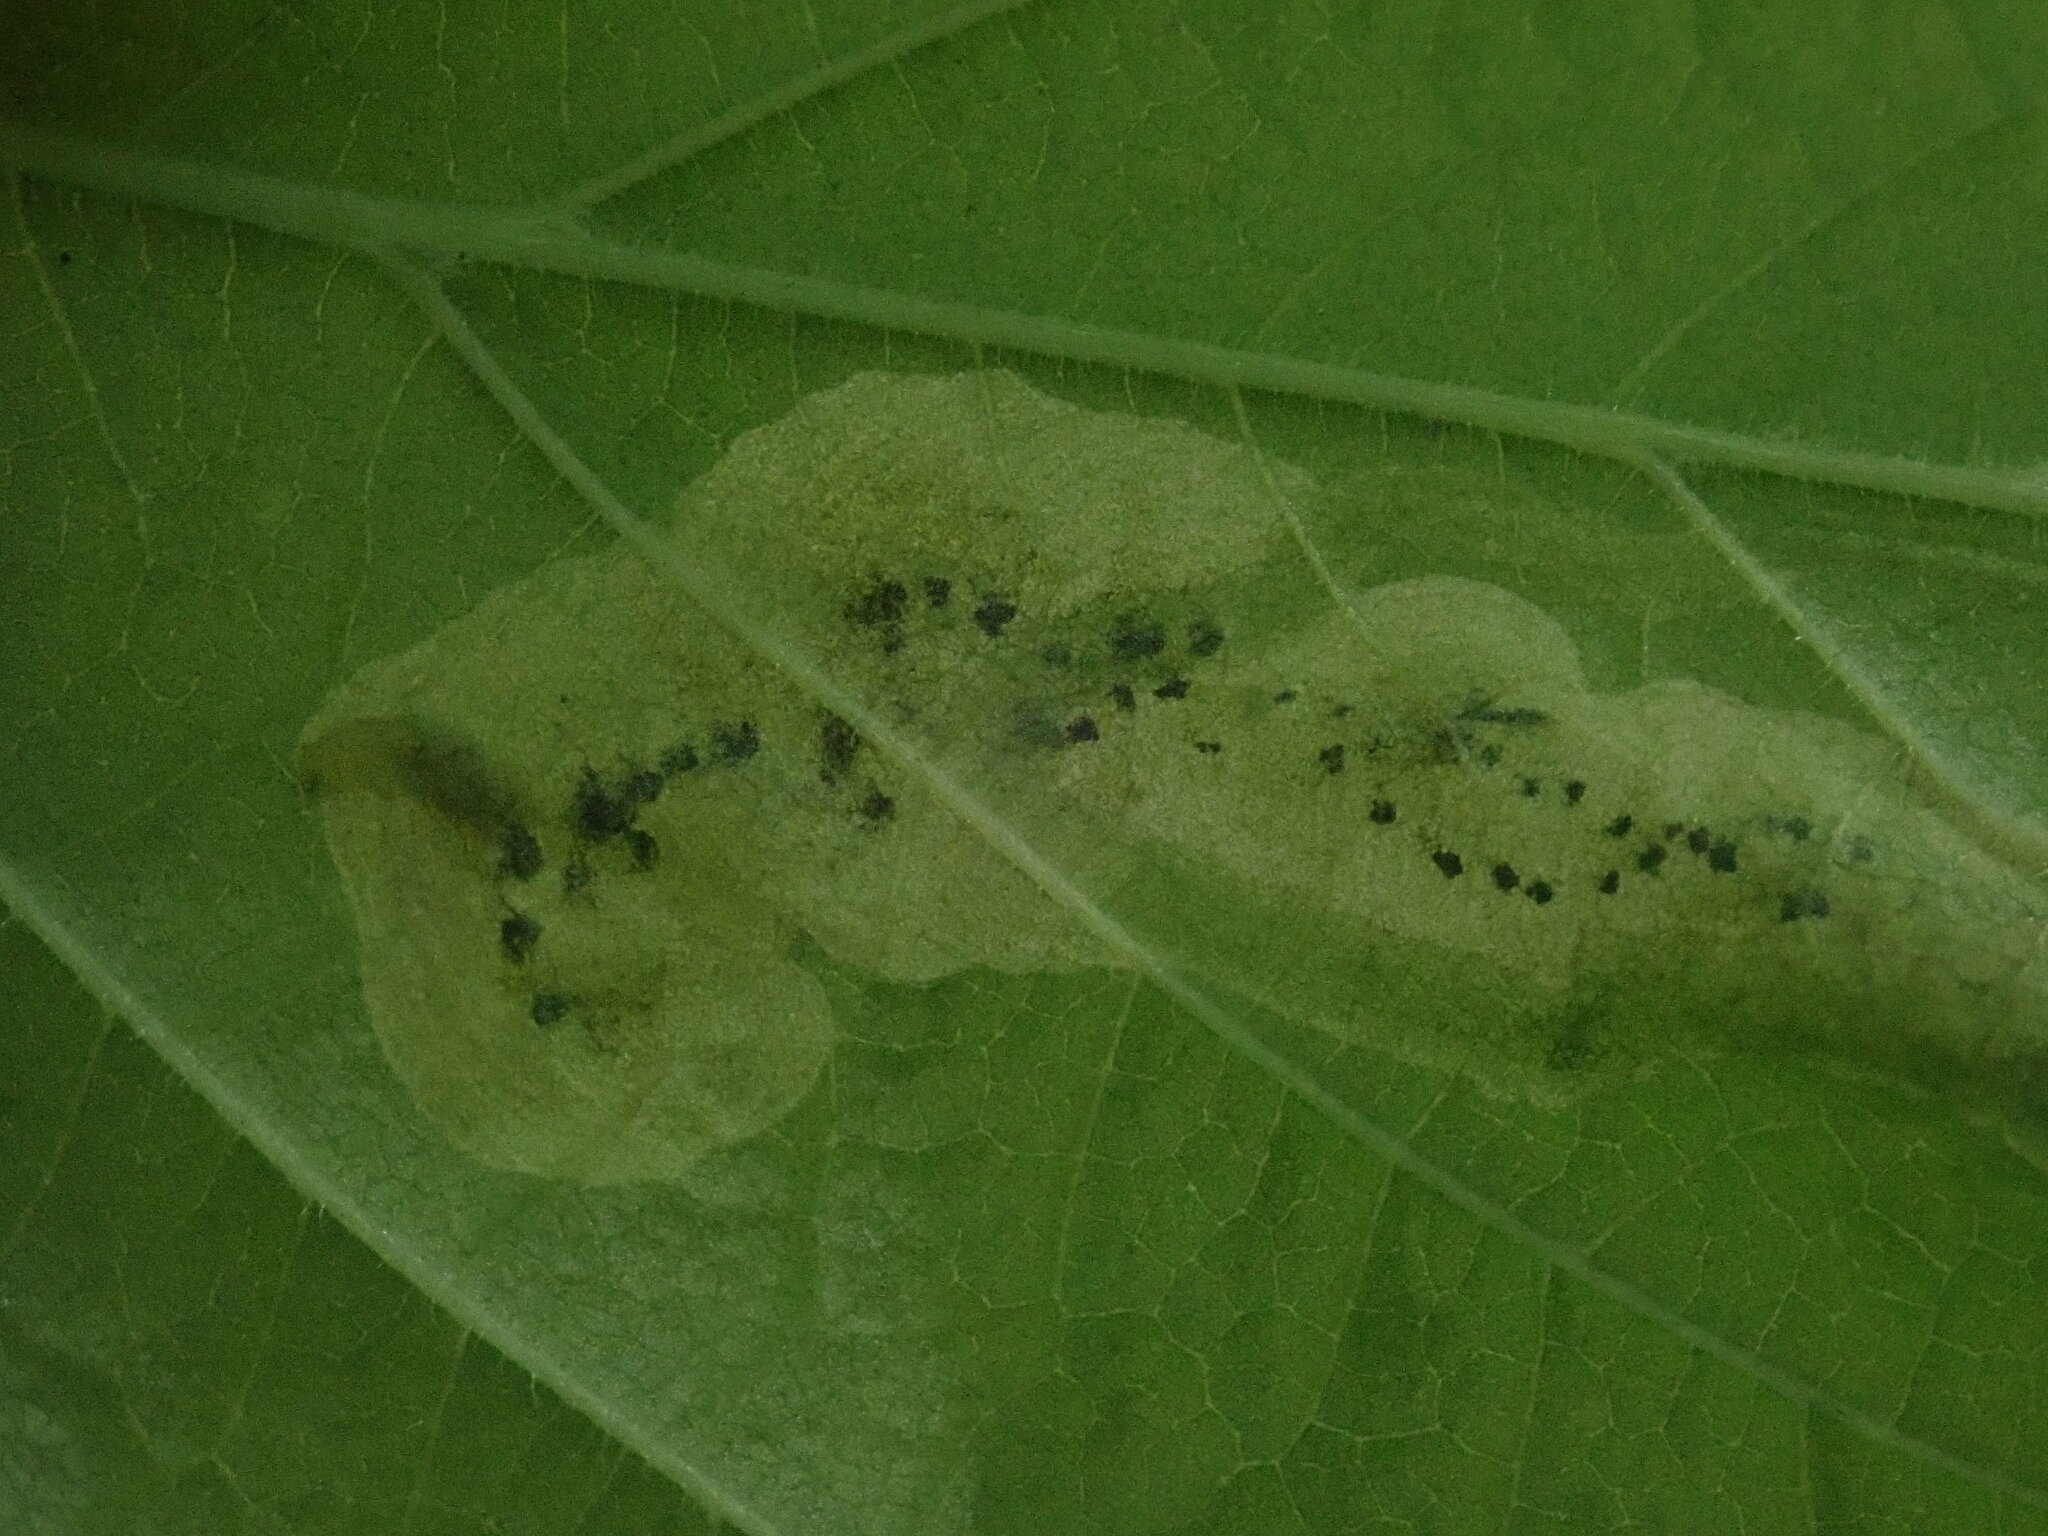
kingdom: Animalia
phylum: Arthropoda
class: Insecta
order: Diptera
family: Agromyzidae
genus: Agromyza
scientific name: Agromyza aristata
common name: Elm agromyzid leafminer
